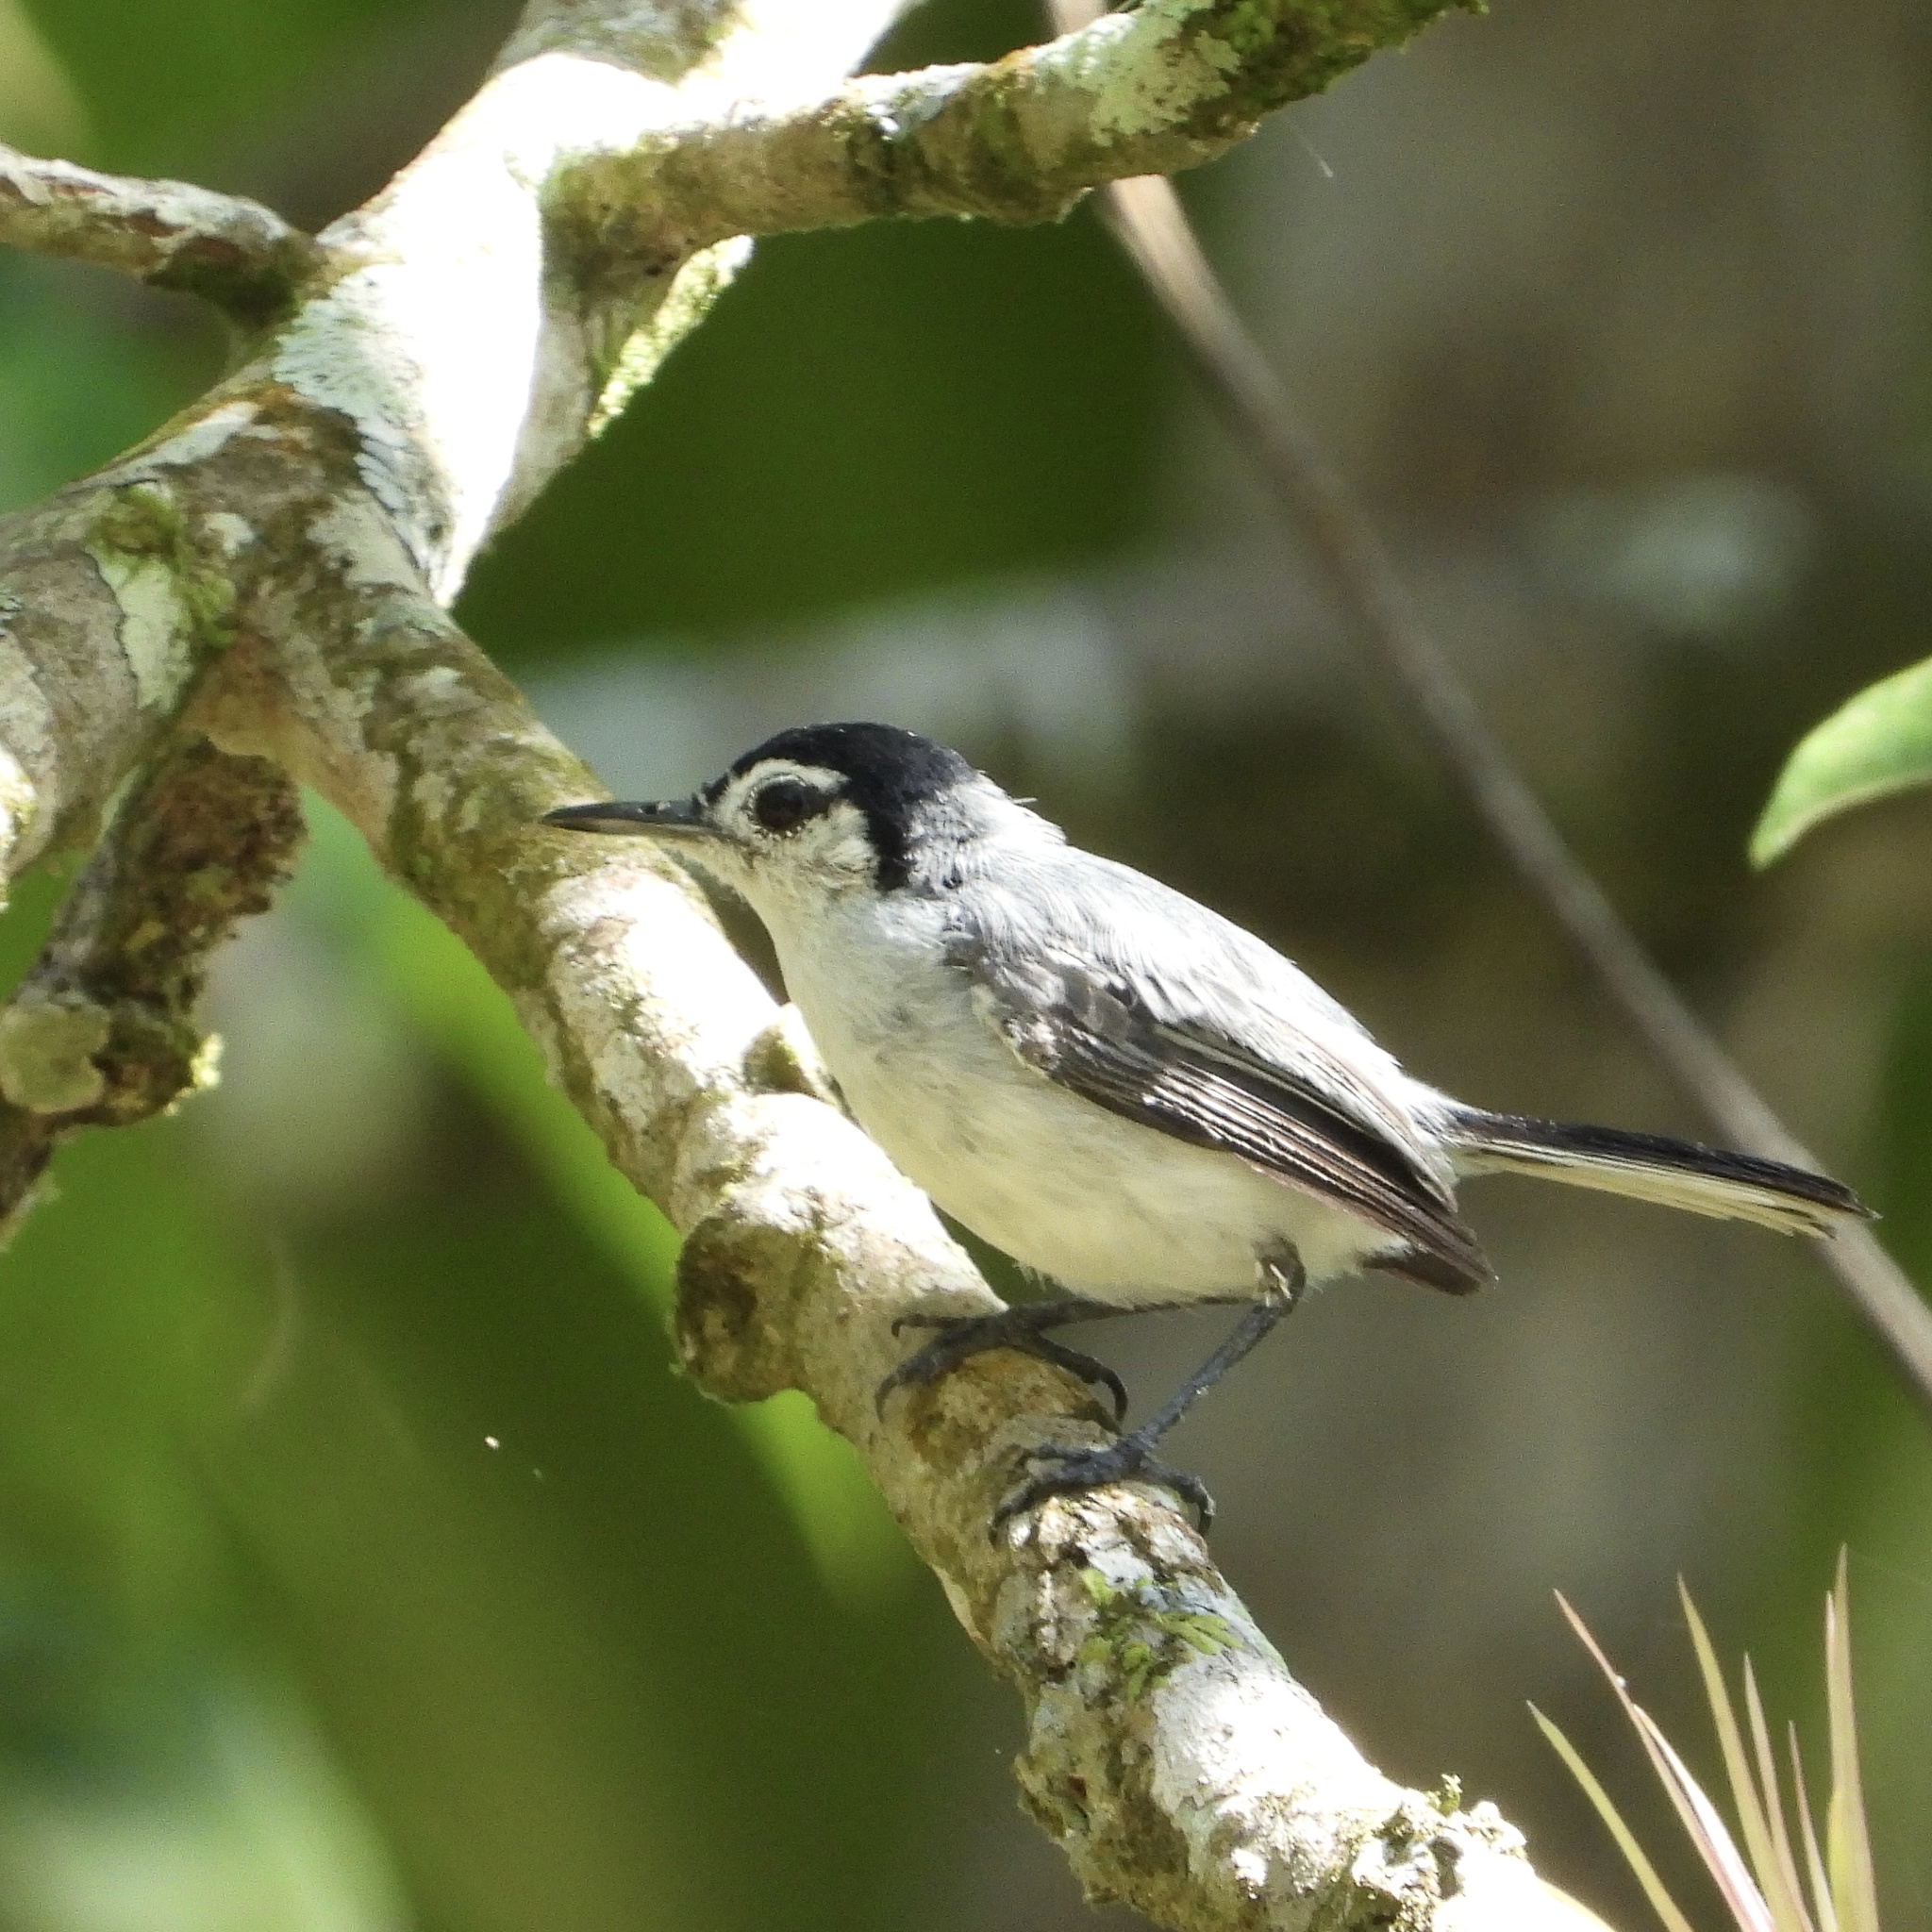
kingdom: Animalia
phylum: Chordata
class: Aves
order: Passeriformes
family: Polioptilidae
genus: Polioptila
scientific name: Polioptila plumbea
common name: Tropical gnatcatcher
